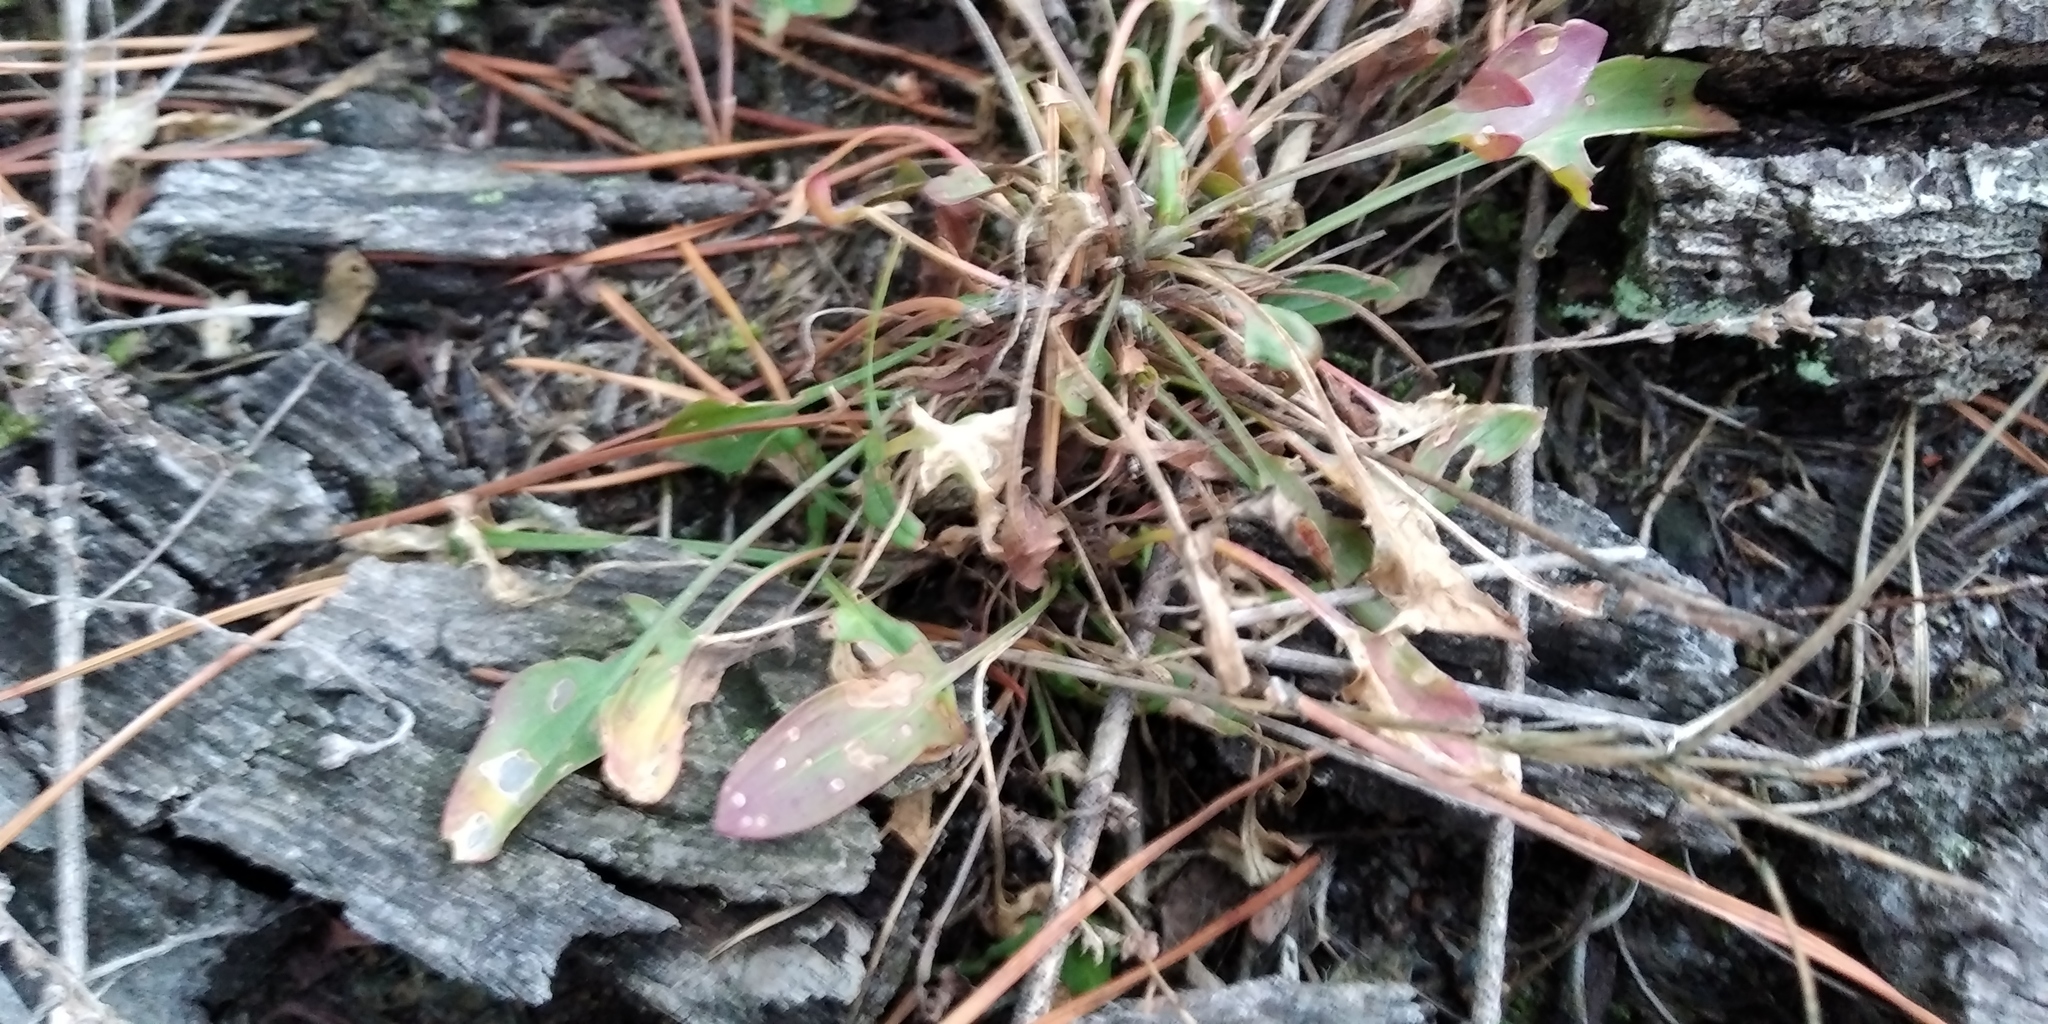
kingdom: Plantae
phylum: Tracheophyta
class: Magnoliopsida
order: Caryophyllales
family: Polygonaceae
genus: Rumex
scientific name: Rumex acetosella
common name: Common sheep sorrel
